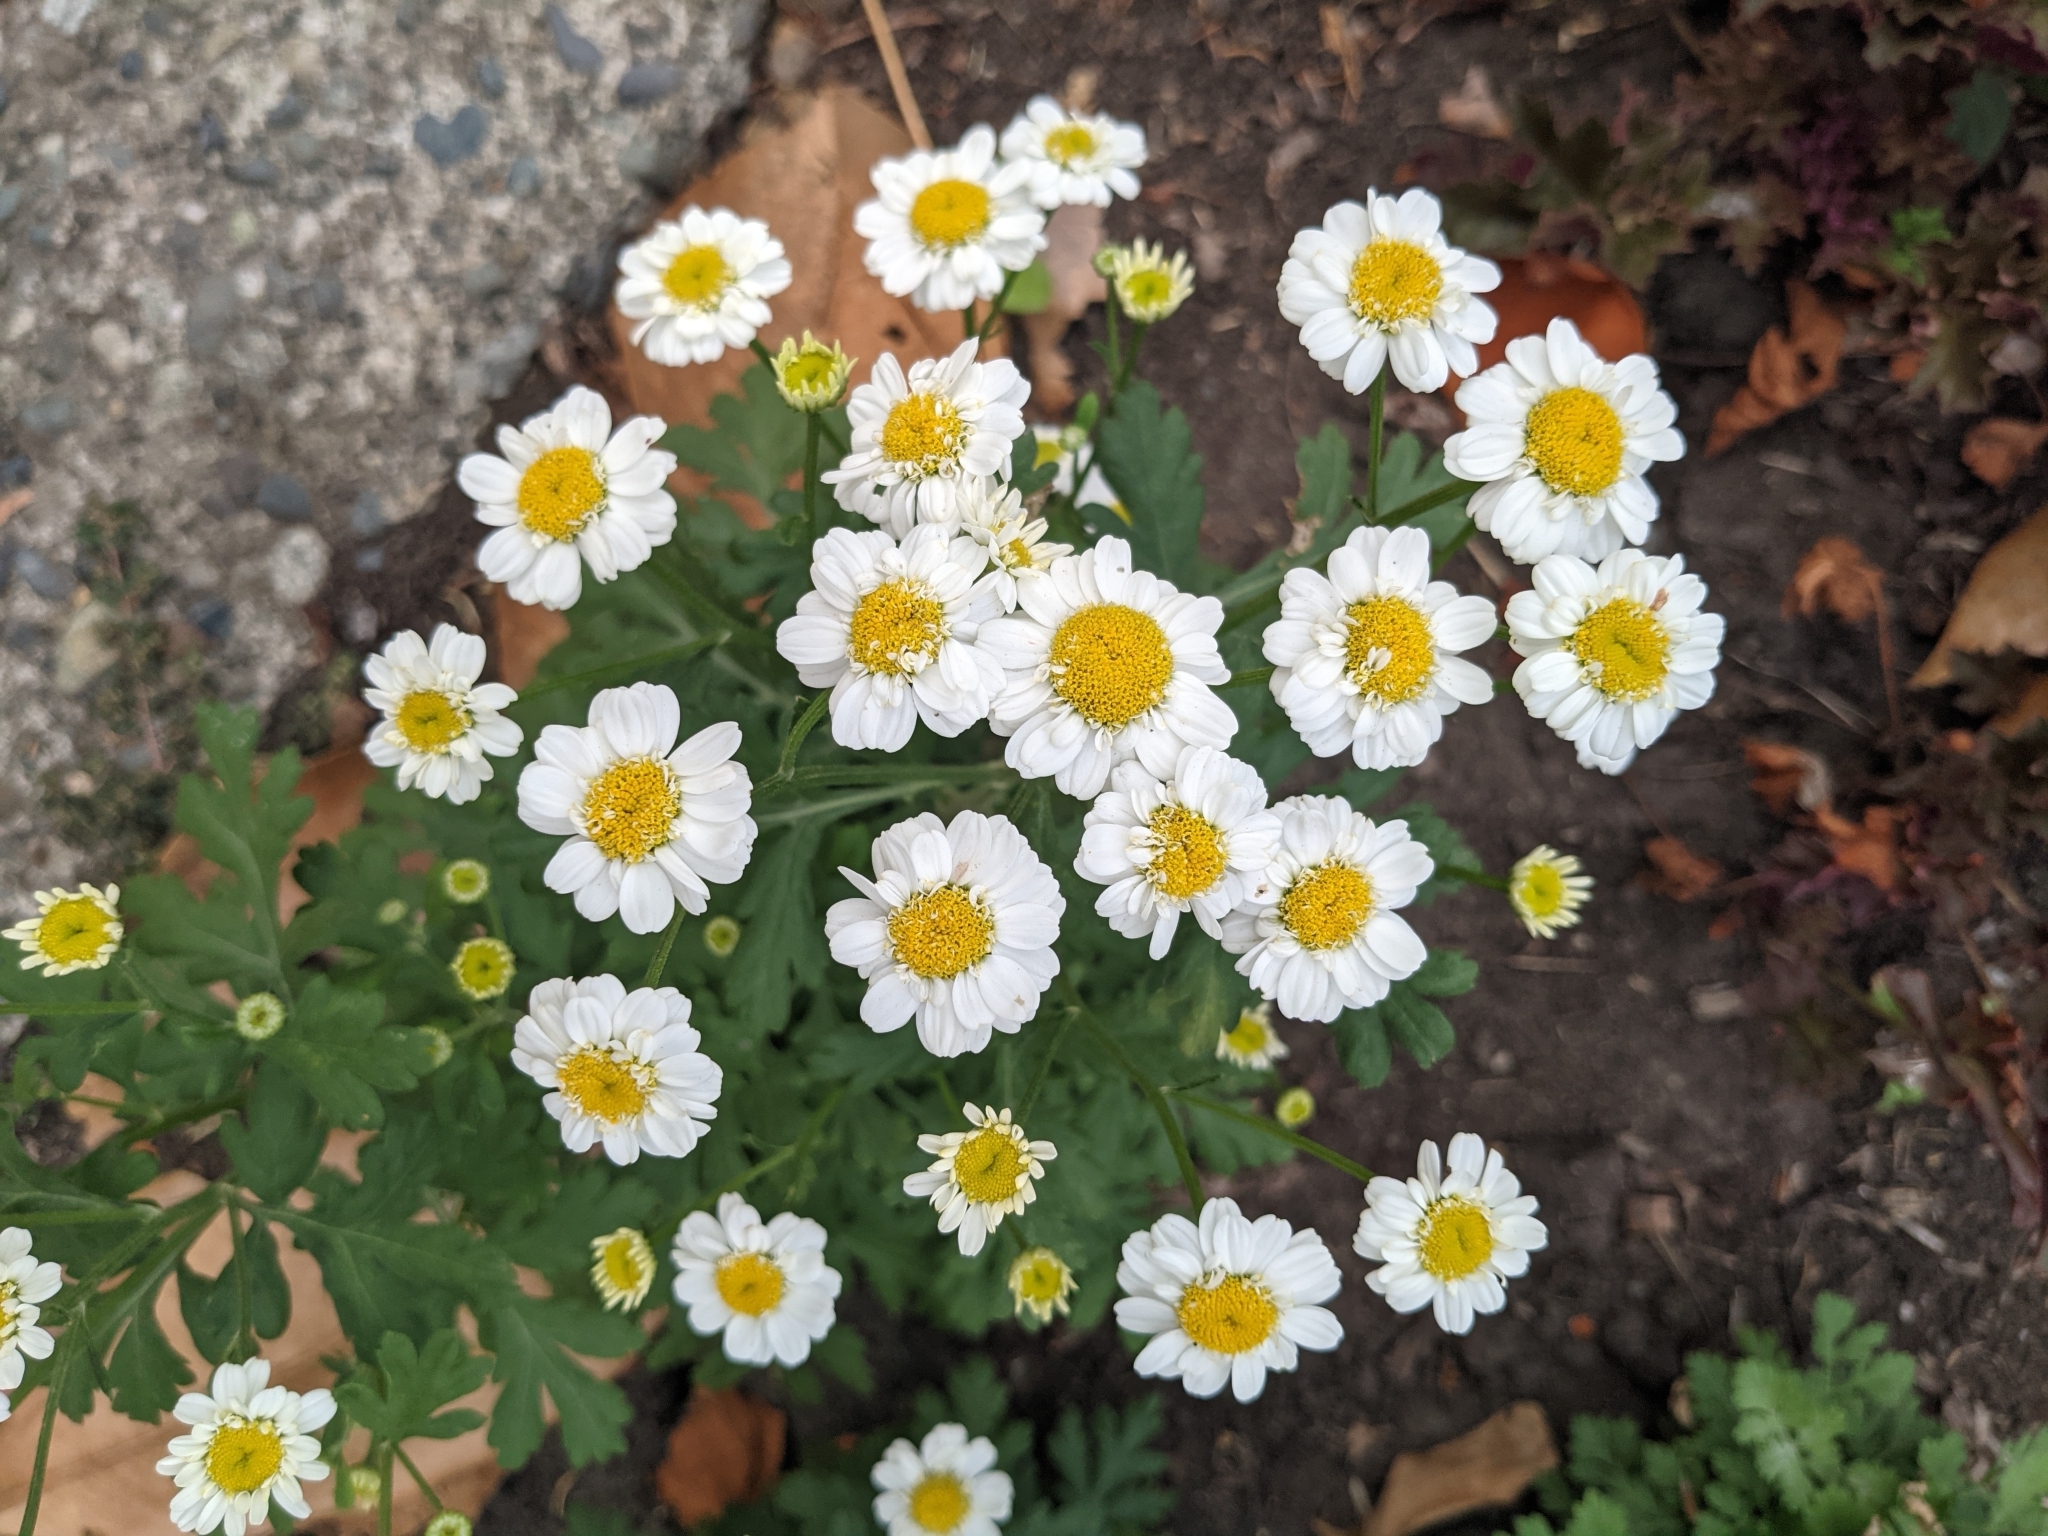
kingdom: Plantae
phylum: Tracheophyta
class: Magnoliopsida
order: Asterales
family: Asteraceae
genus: Tanacetum
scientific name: Tanacetum parthenium
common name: Feverfew
